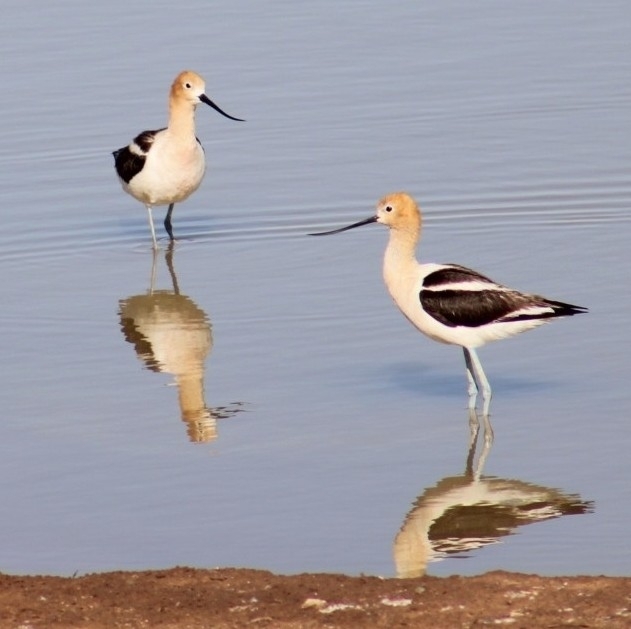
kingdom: Animalia
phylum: Chordata
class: Aves
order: Charadriiformes
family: Recurvirostridae
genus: Recurvirostra
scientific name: Recurvirostra americana
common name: American avocet
